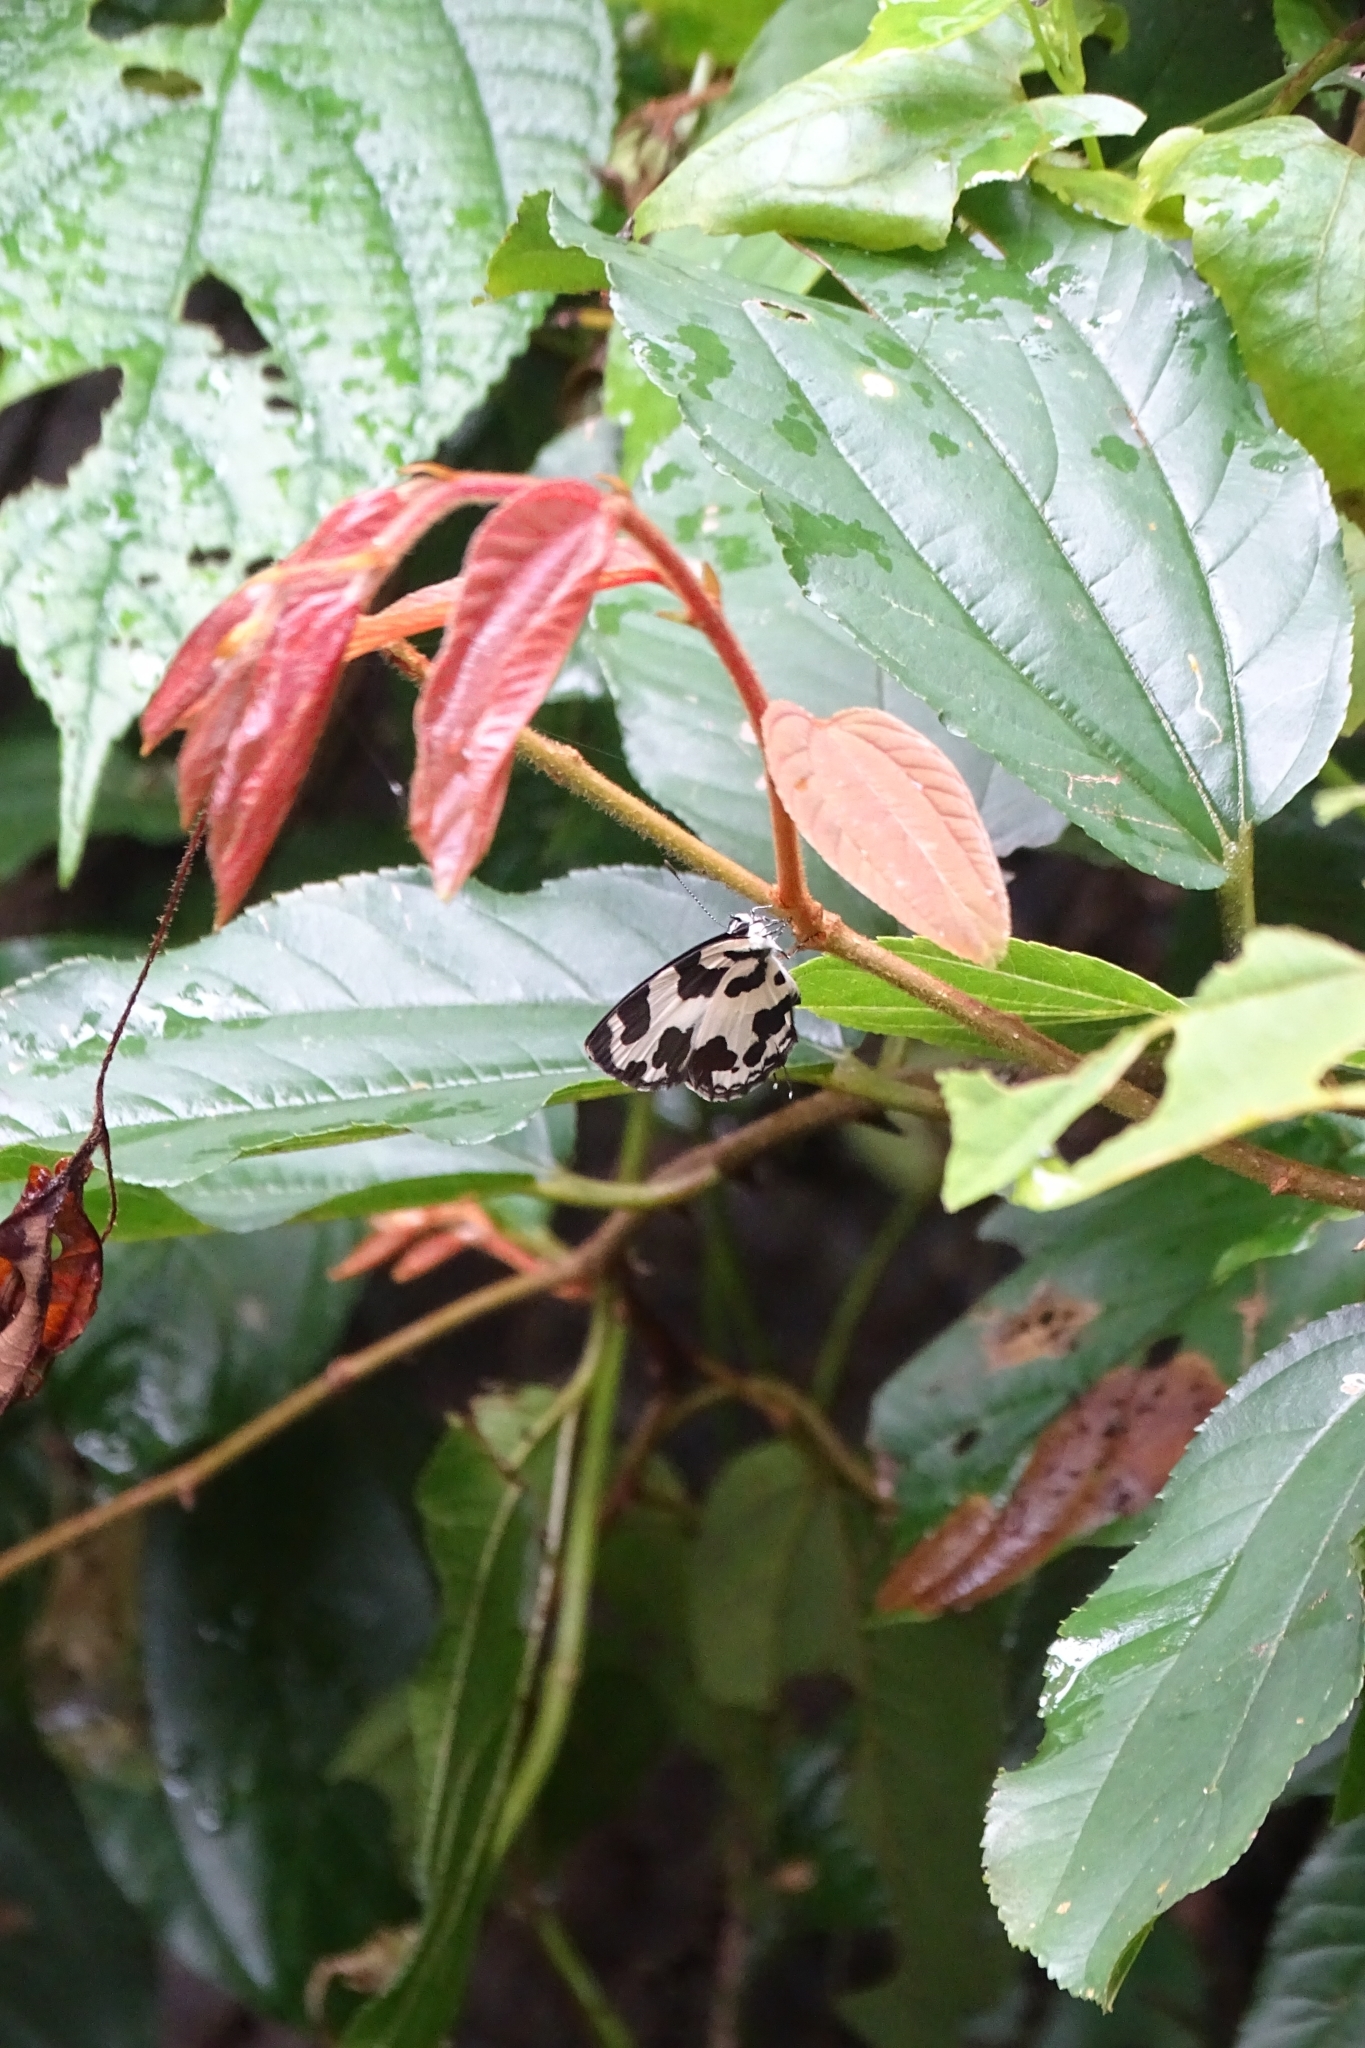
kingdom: Animalia
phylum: Arthropoda
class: Insecta
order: Lepidoptera
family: Lycaenidae
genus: Caleta
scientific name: Caleta decidia
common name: Angled pierrot
